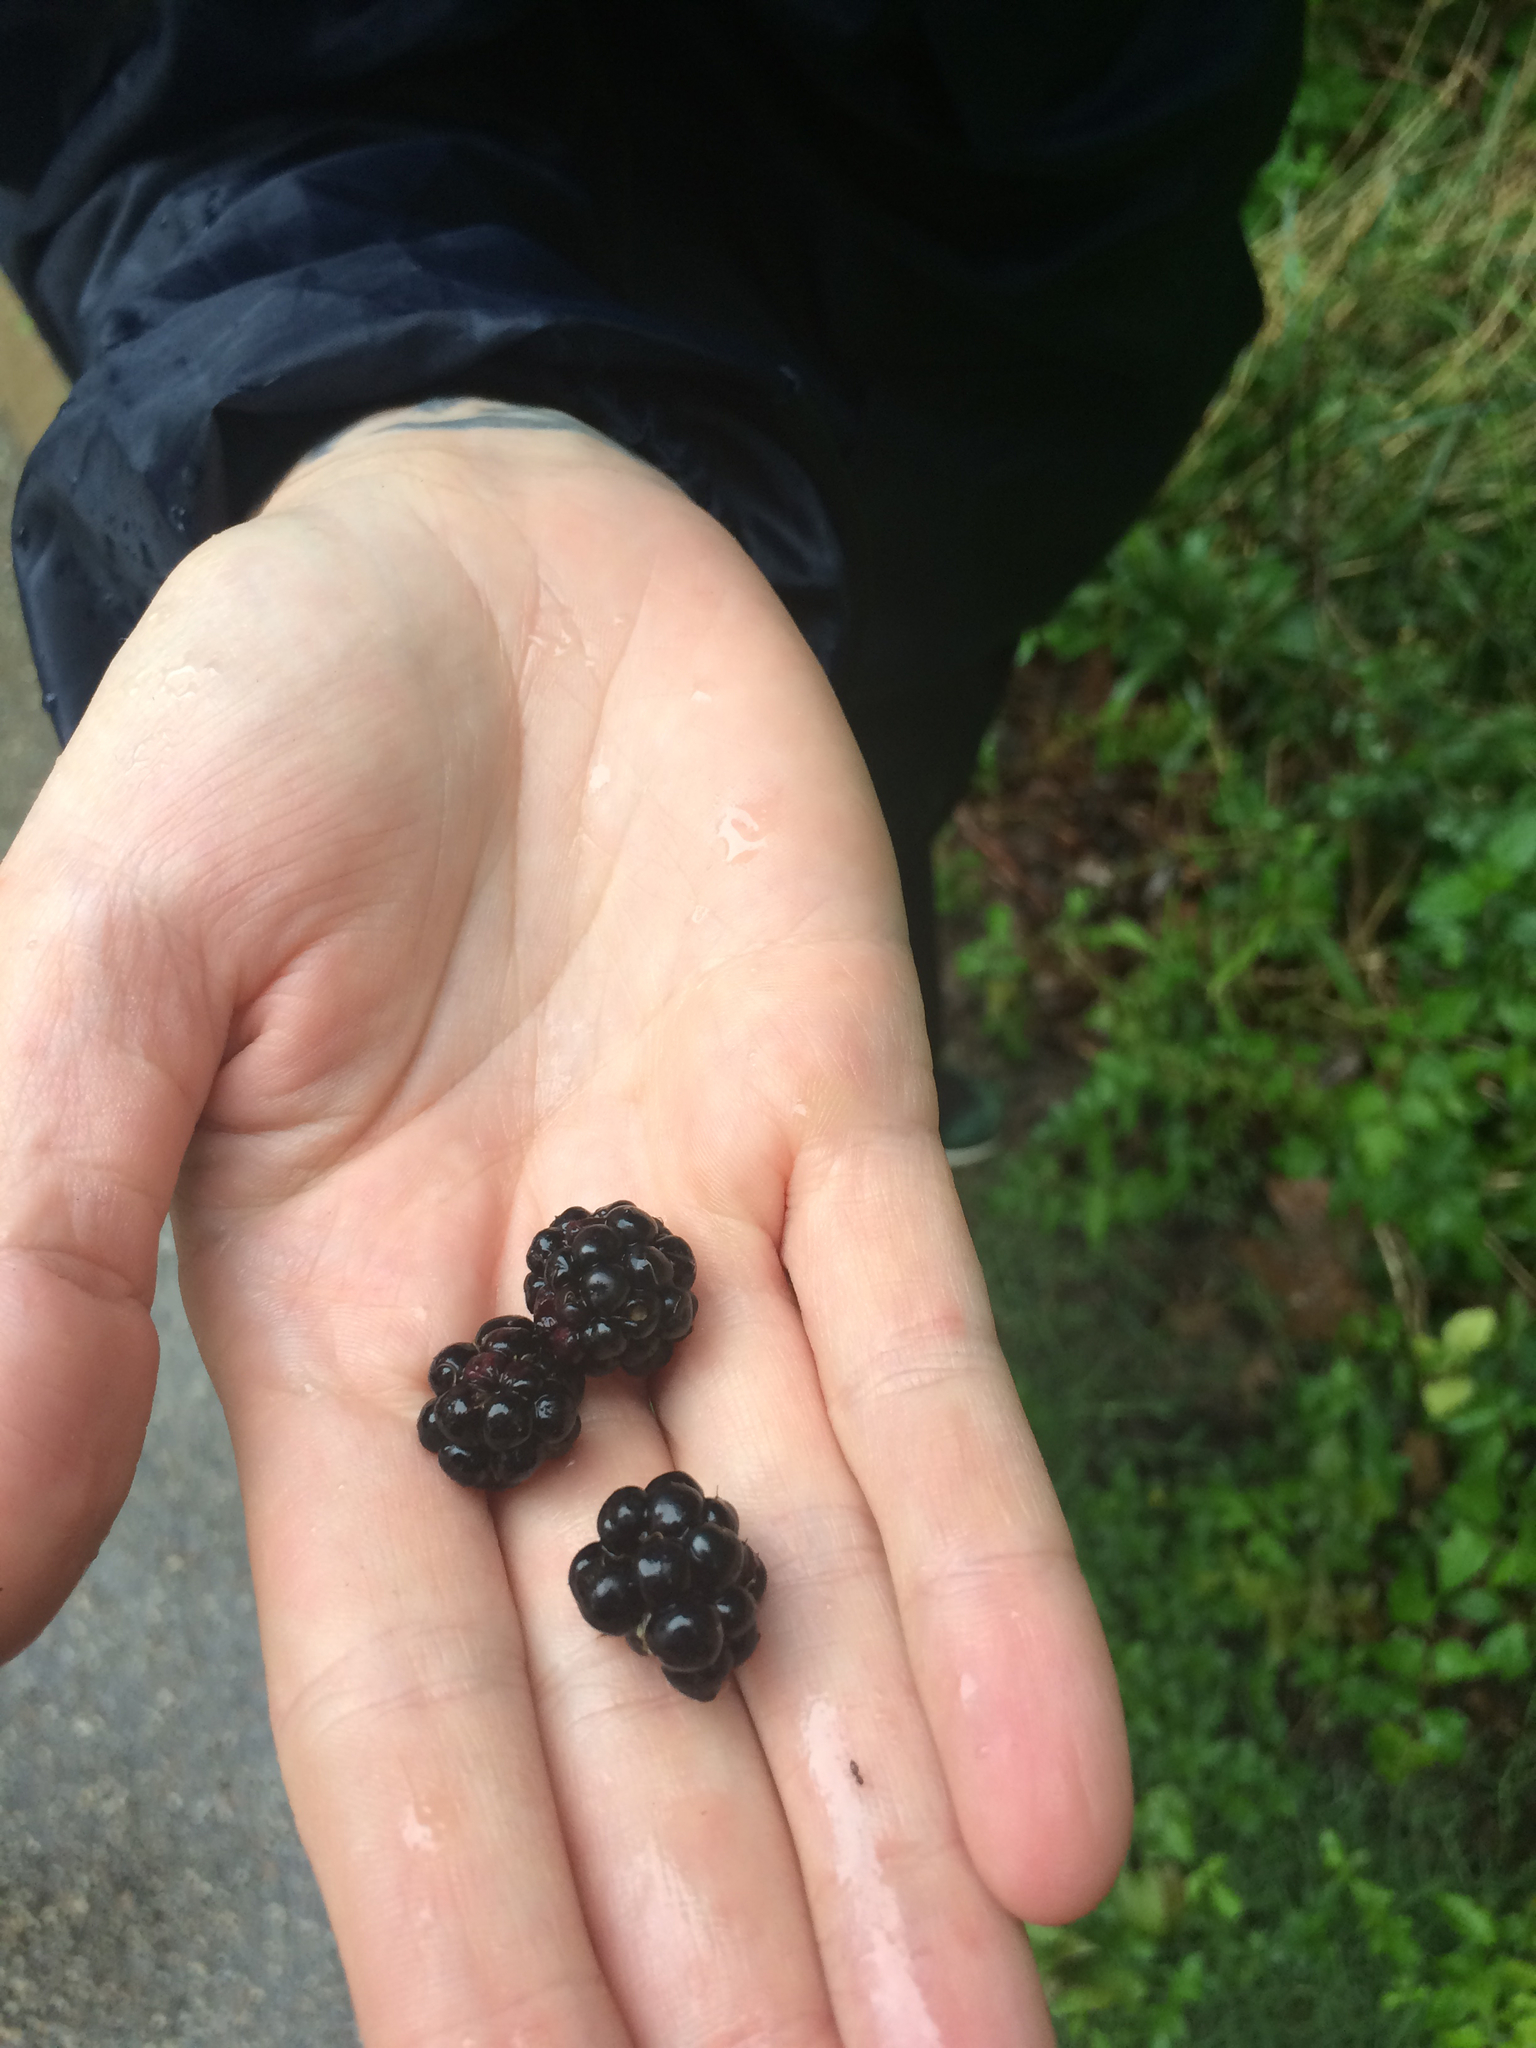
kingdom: Plantae
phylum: Tracheophyta
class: Magnoliopsida
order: Rosales
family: Rosaceae
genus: Rubus
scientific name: Rubus trivialis
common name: Southern dewberry
